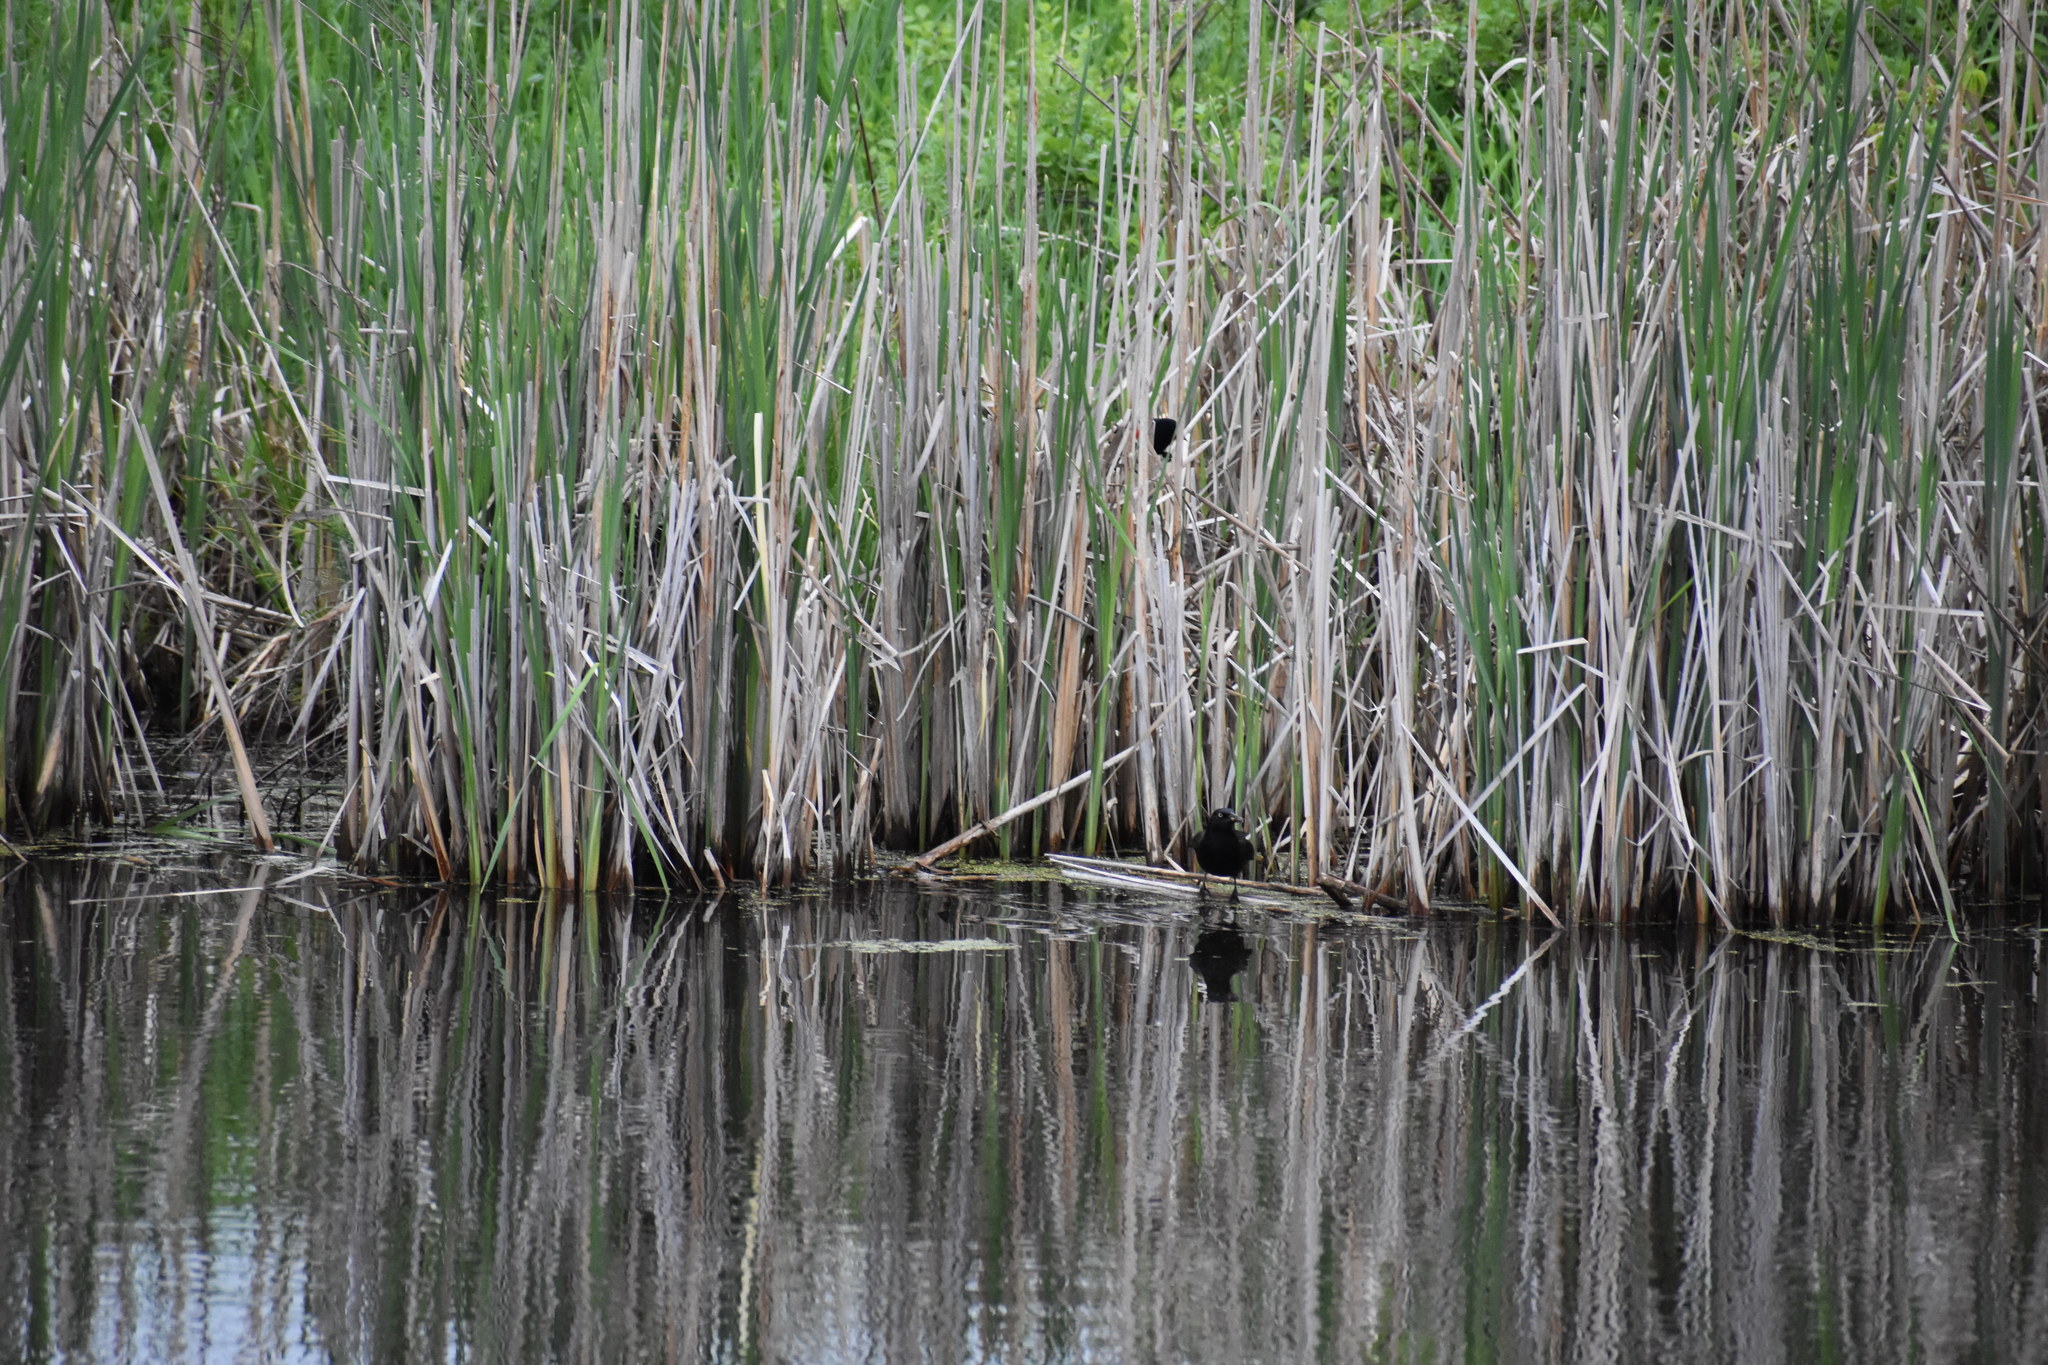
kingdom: Animalia
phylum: Chordata
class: Aves
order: Passeriformes
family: Icteridae
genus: Quiscalus
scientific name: Quiscalus quiscula
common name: Common grackle
